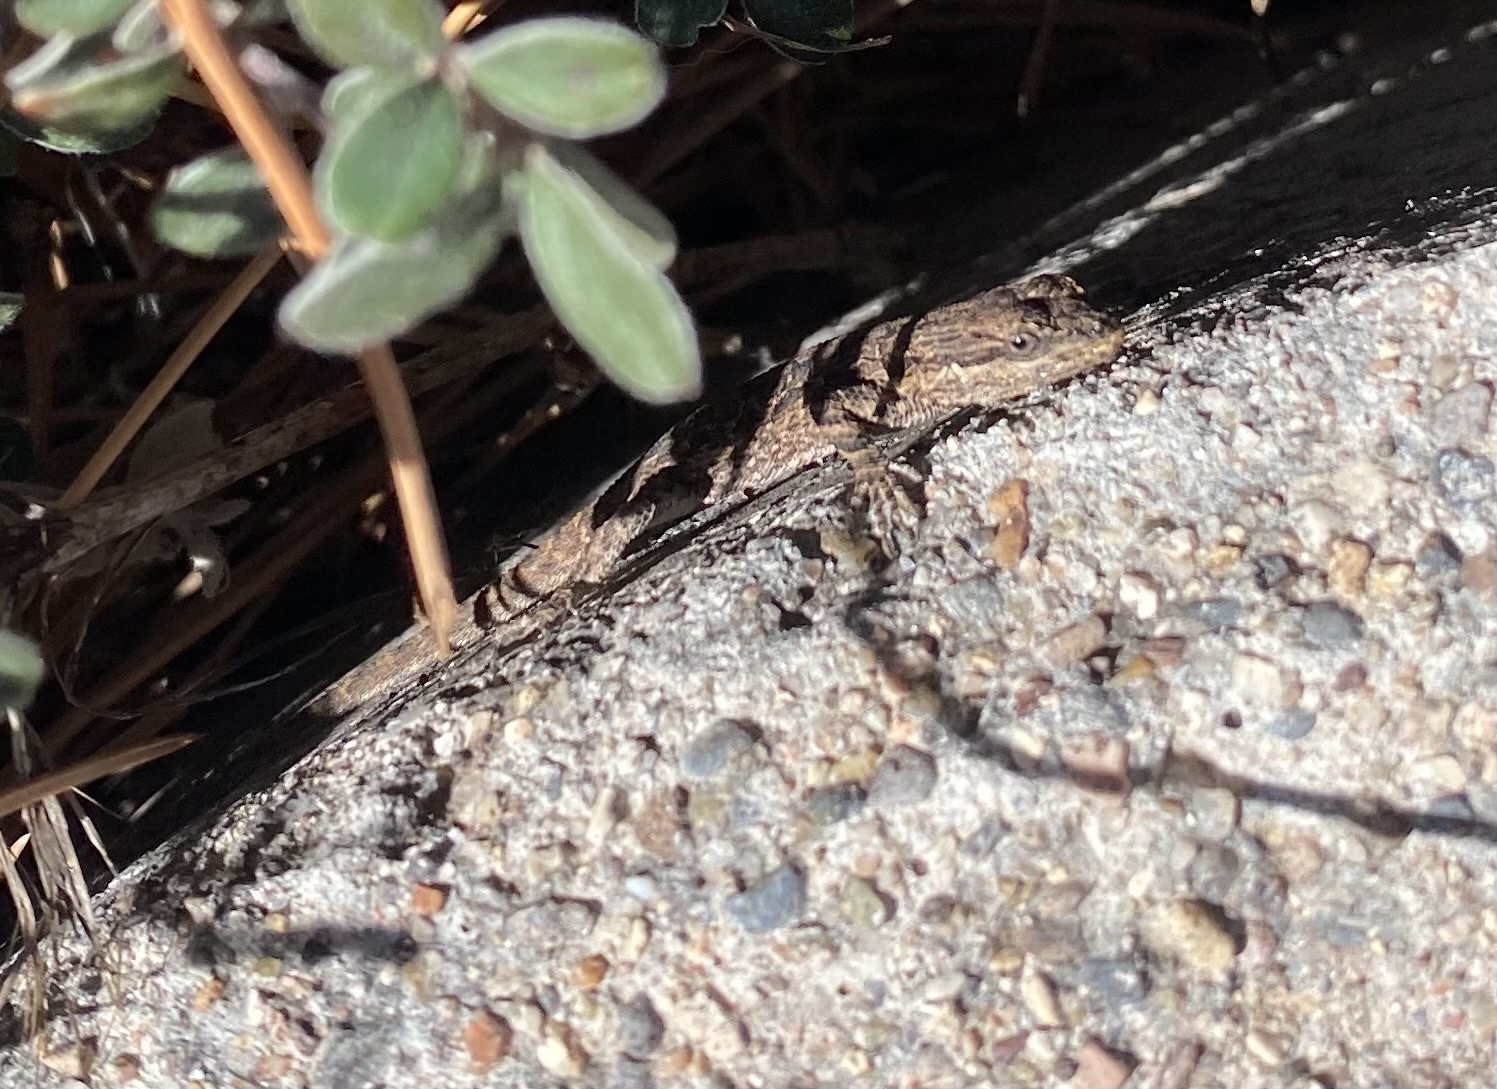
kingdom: Animalia
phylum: Chordata
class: Squamata
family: Phrynosomatidae
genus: Urosaurus
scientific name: Urosaurus ornatus
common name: Ornate tree lizard
